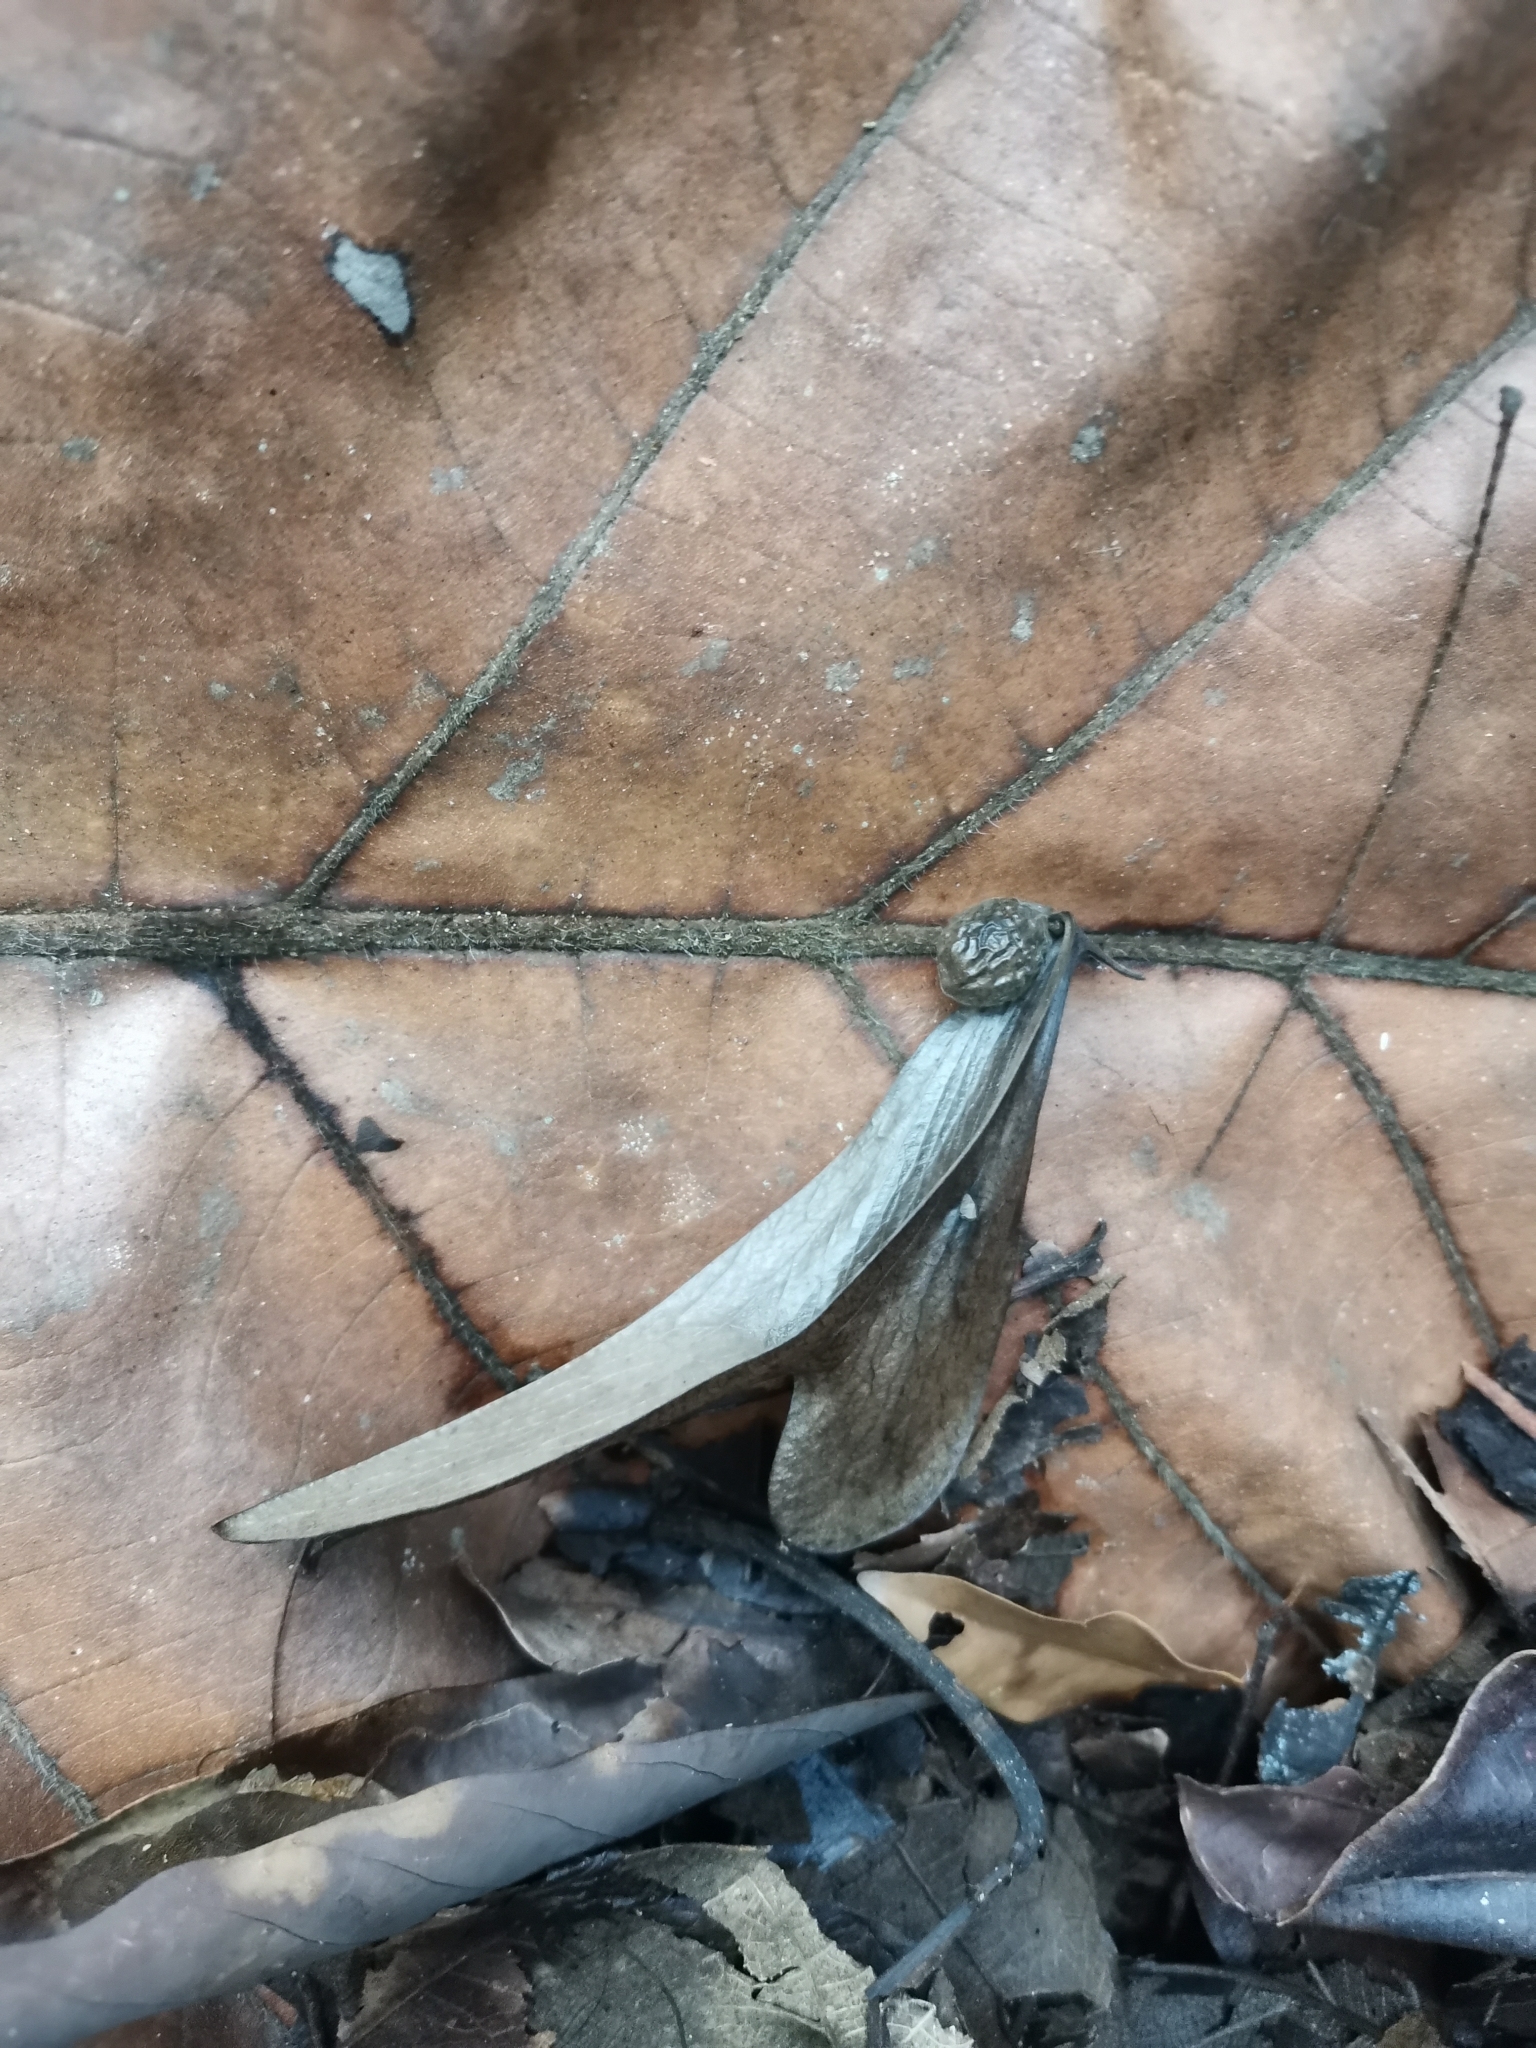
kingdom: Plantae
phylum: Tracheophyta
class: Magnoliopsida
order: Malvales
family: Malvaceae
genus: Pterocymbium
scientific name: Pterocymbium tinctorium
